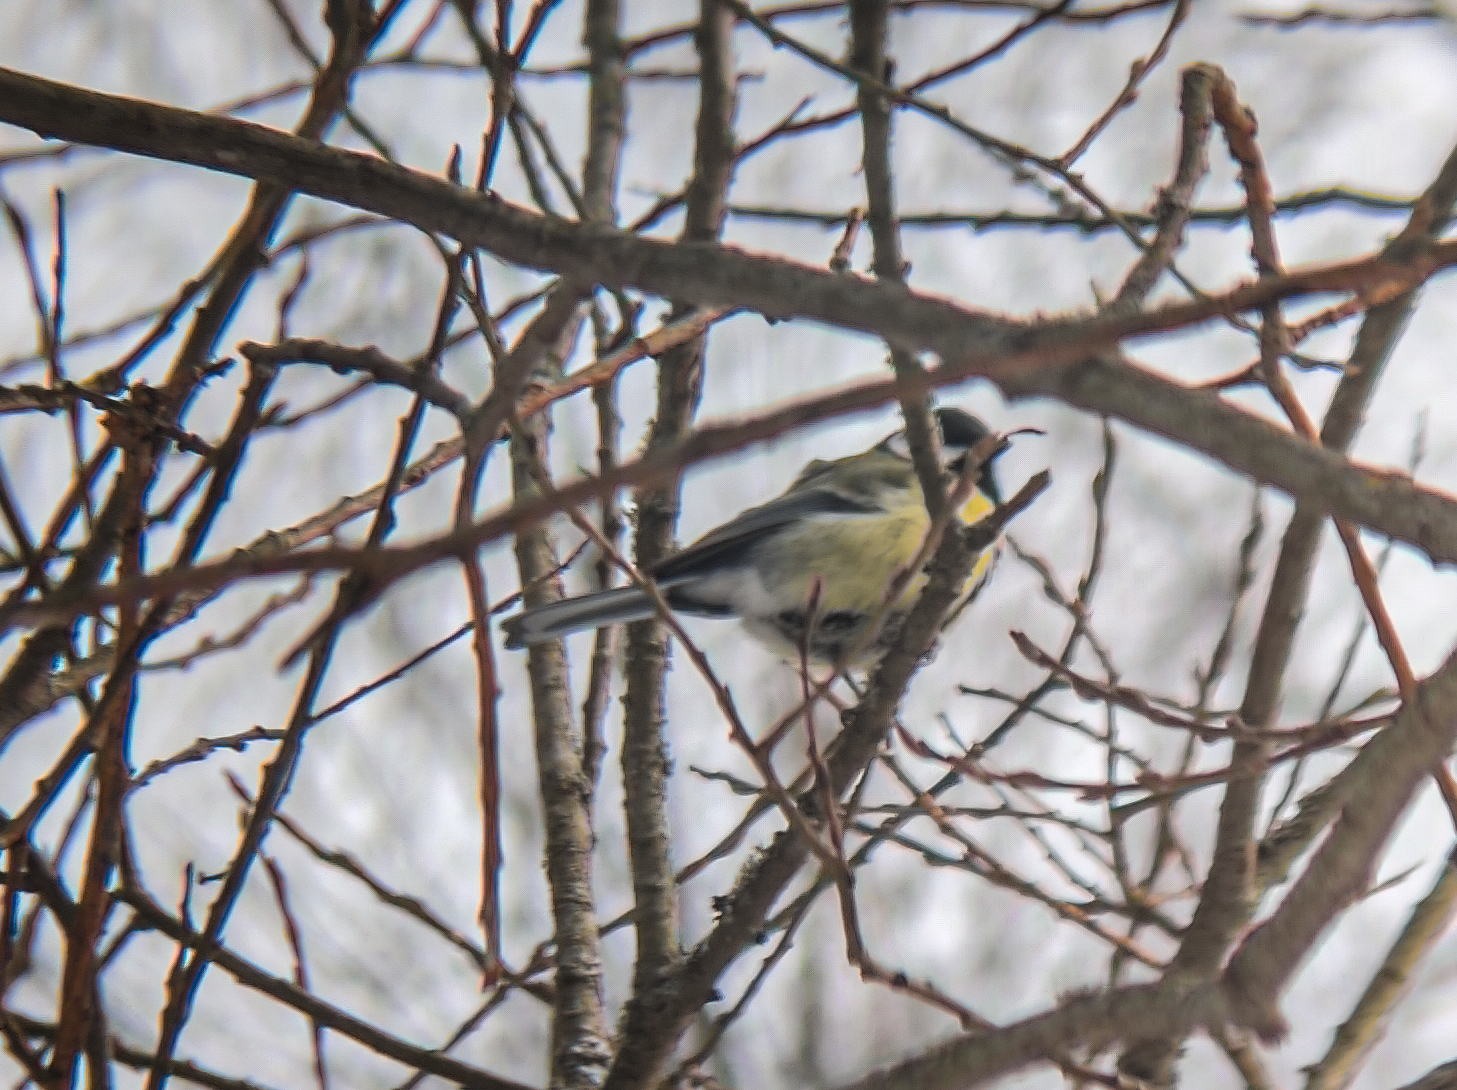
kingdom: Animalia
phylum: Chordata
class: Aves
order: Passeriformes
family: Paridae
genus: Parus
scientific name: Parus major
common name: Great tit
